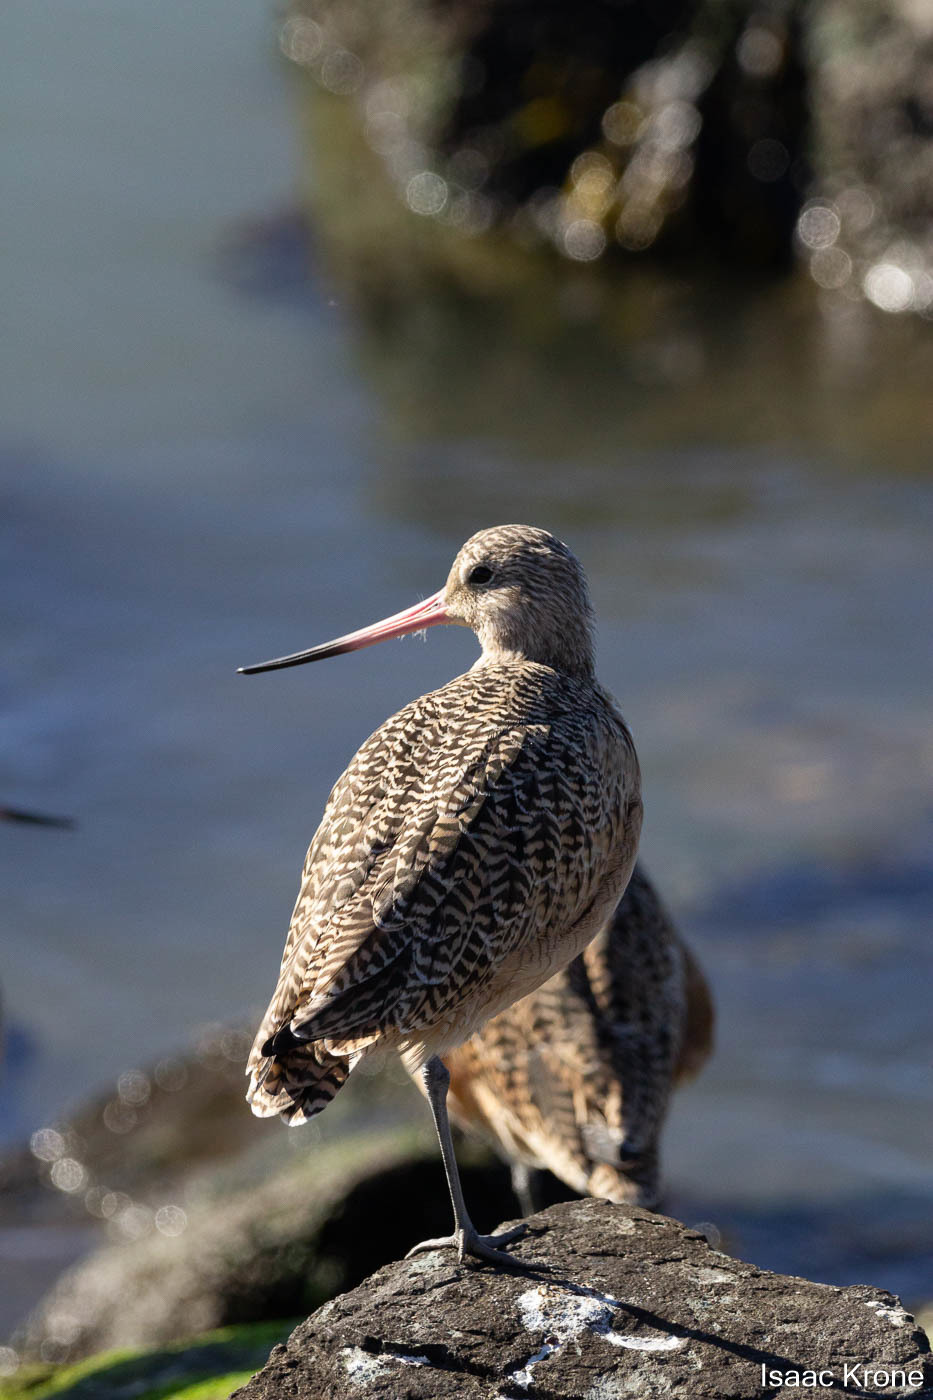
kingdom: Animalia
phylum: Chordata
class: Aves
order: Charadriiformes
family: Scolopacidae
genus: Limosa
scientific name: Limosa fedoa
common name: Marbled godwit
